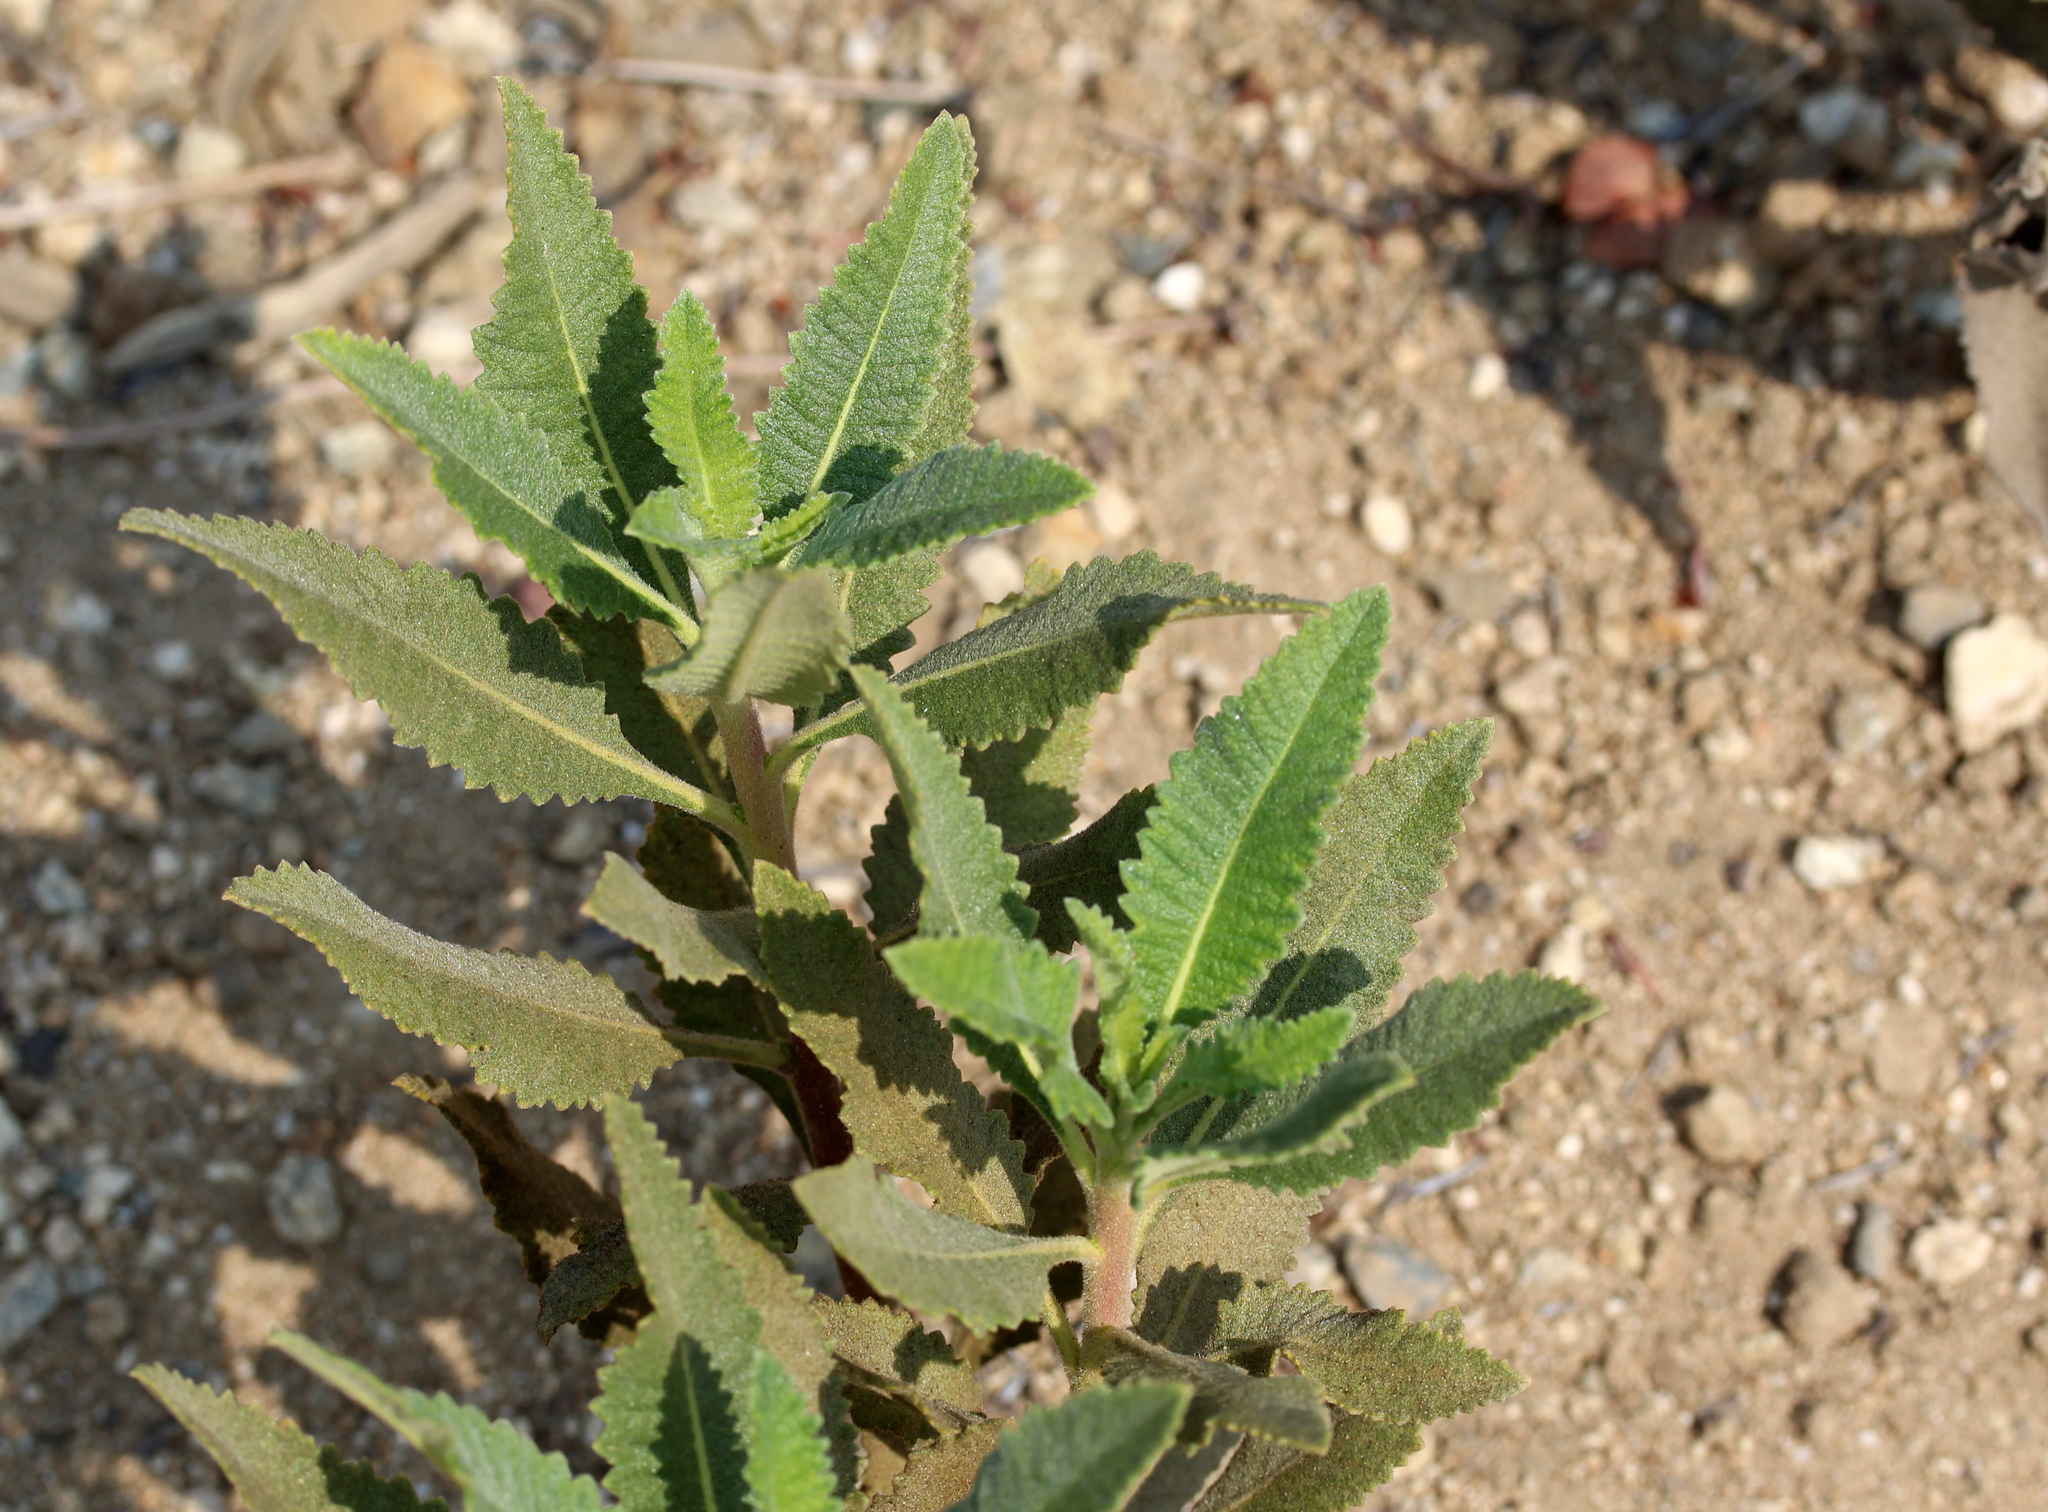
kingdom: Plantae
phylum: Tracheophyta
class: Magnoliopsida
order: Boraginales
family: Namaceae
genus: Eriodictyon
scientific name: Eriodictyon crassifolium
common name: Thick-leaf yerba-santa
